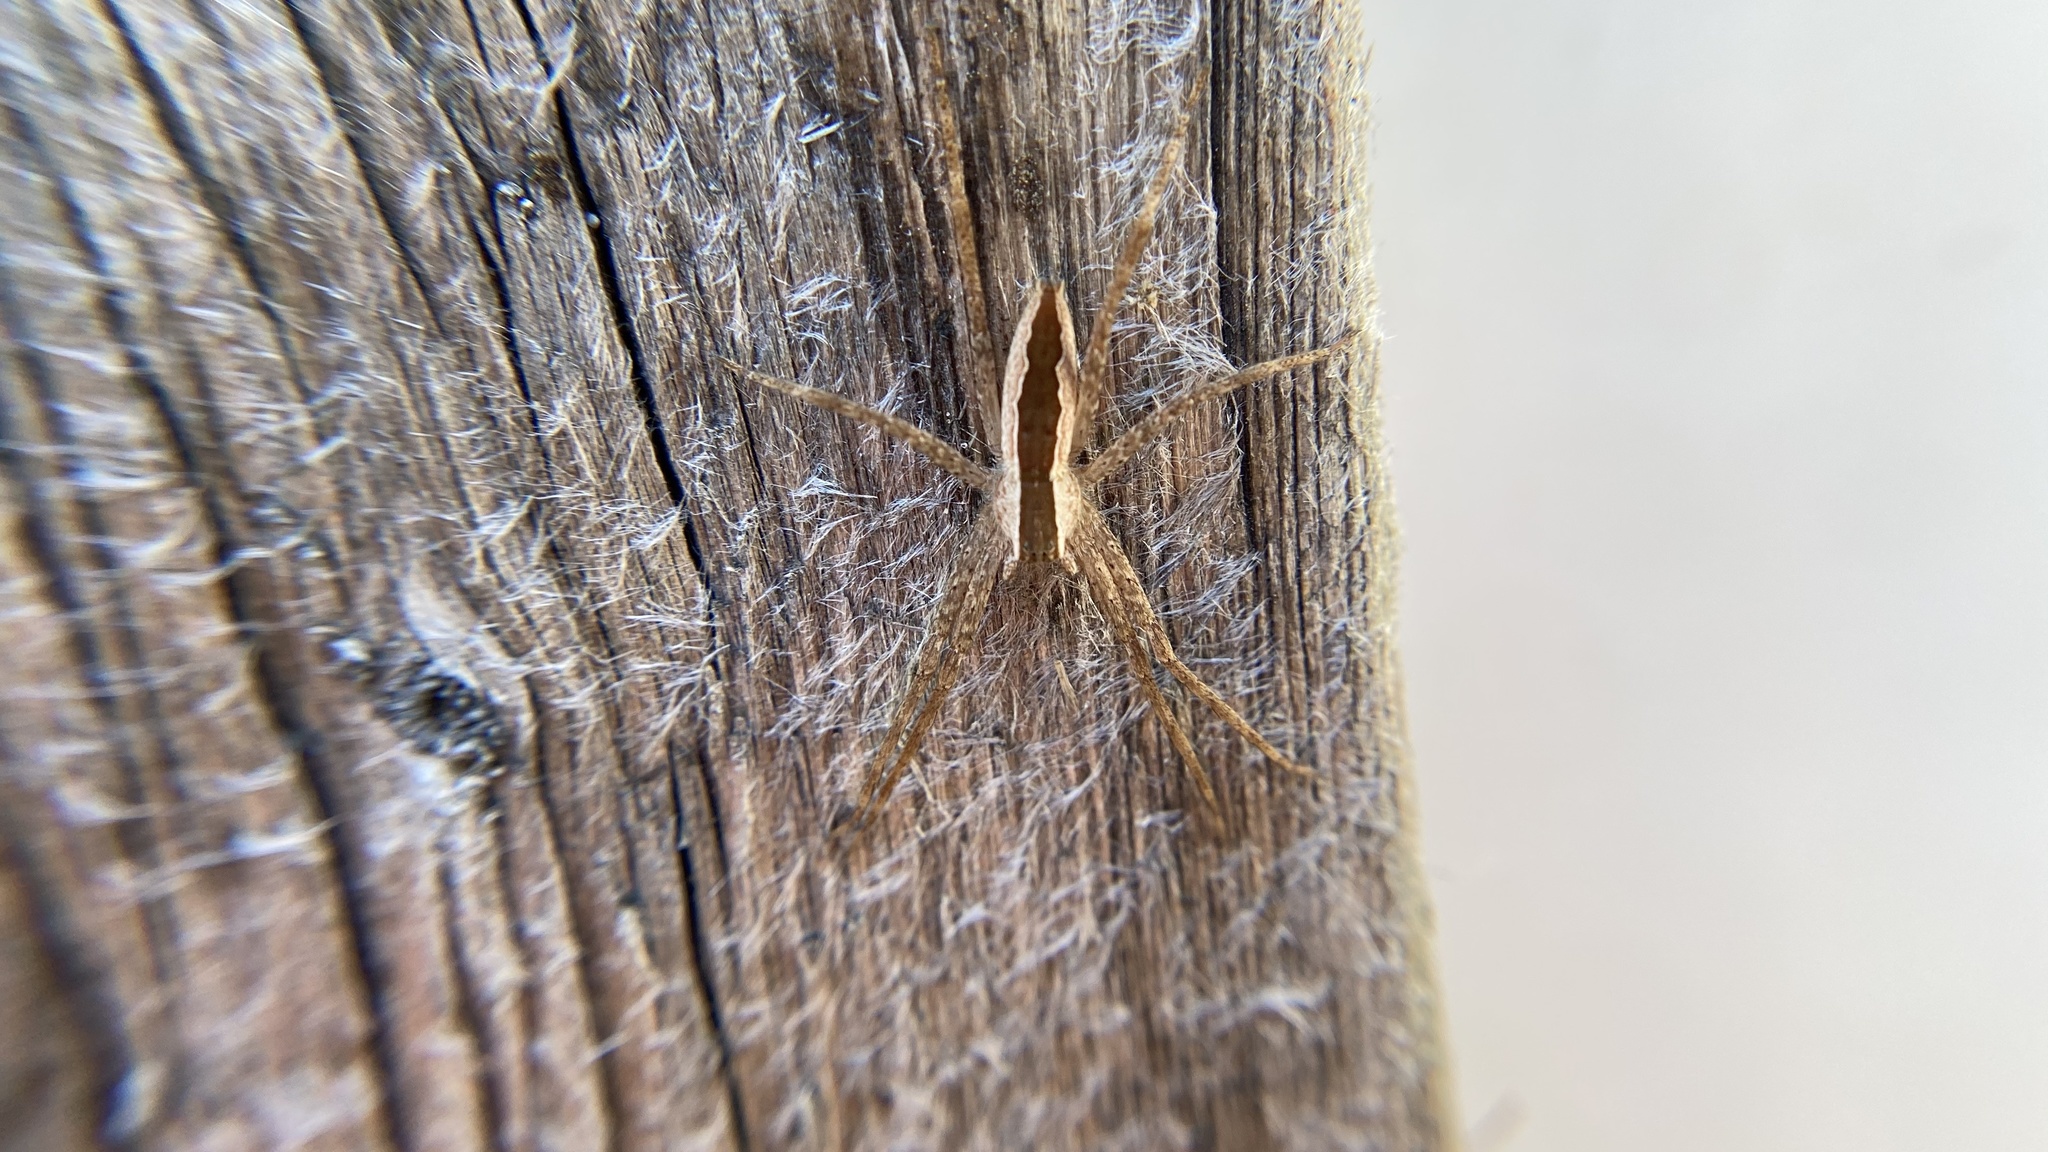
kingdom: Animalia
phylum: Arthropoda
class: Arachnida
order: Araneae
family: Pisauridae
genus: Pisaurina
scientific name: Pisaurina mira
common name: American nursery web spider
